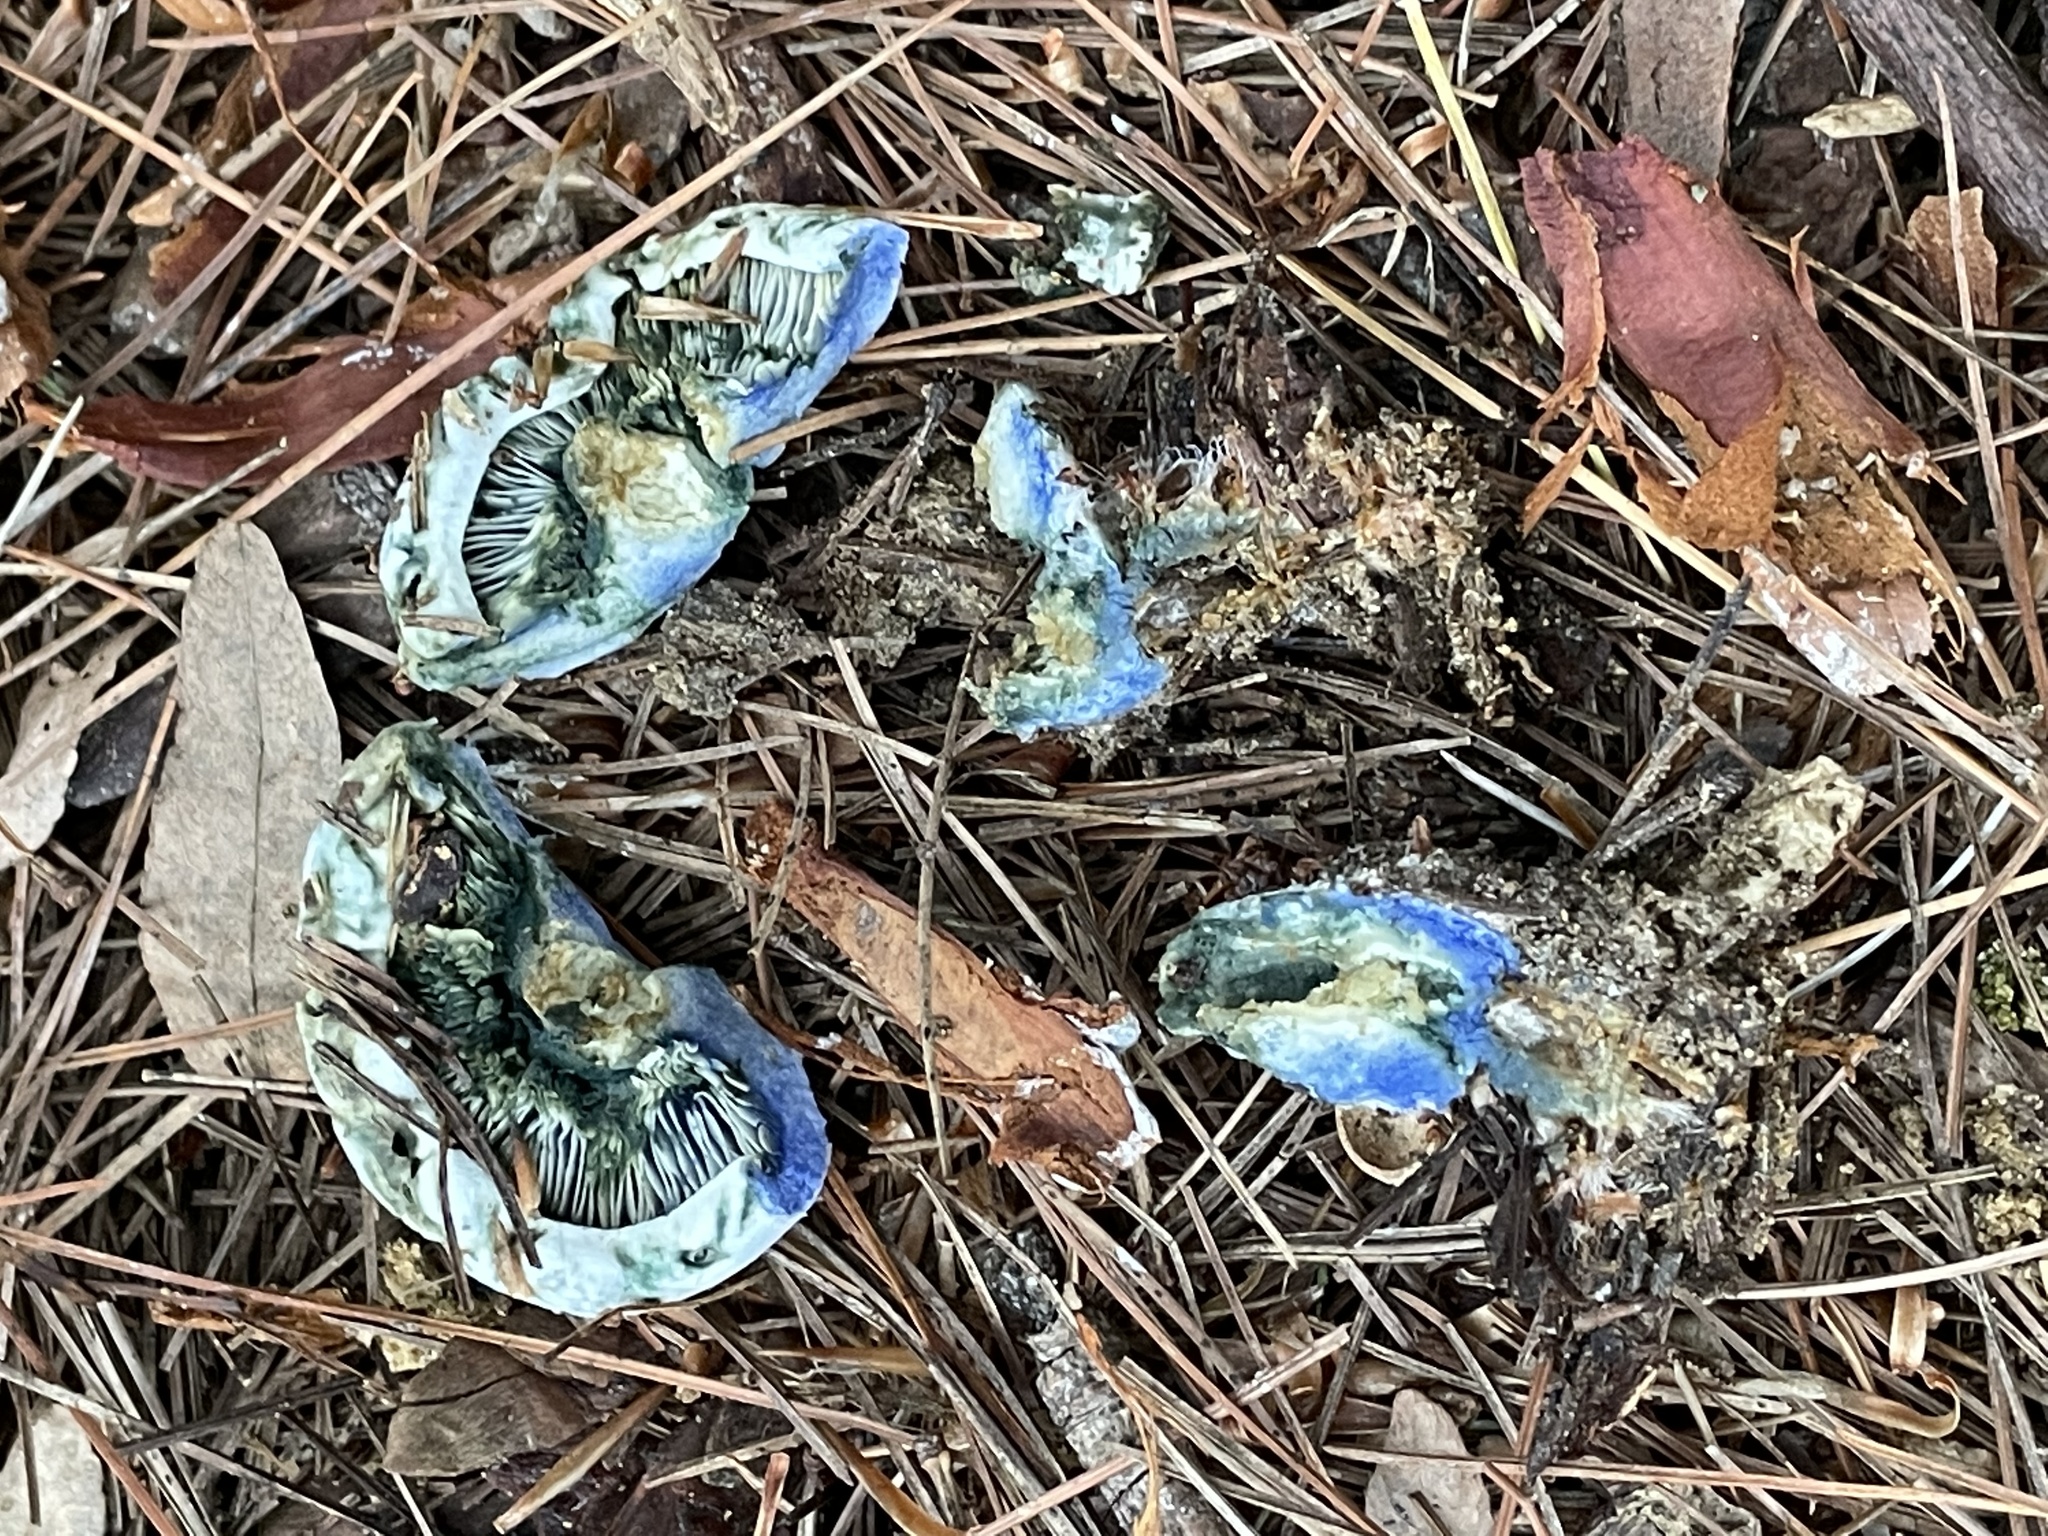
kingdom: Fungi
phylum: Basidiomycota
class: Agaricomycetes
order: Russulales
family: Russulaceae
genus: Lactarius
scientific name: Lactarius indigo
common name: Indigo milk cap
